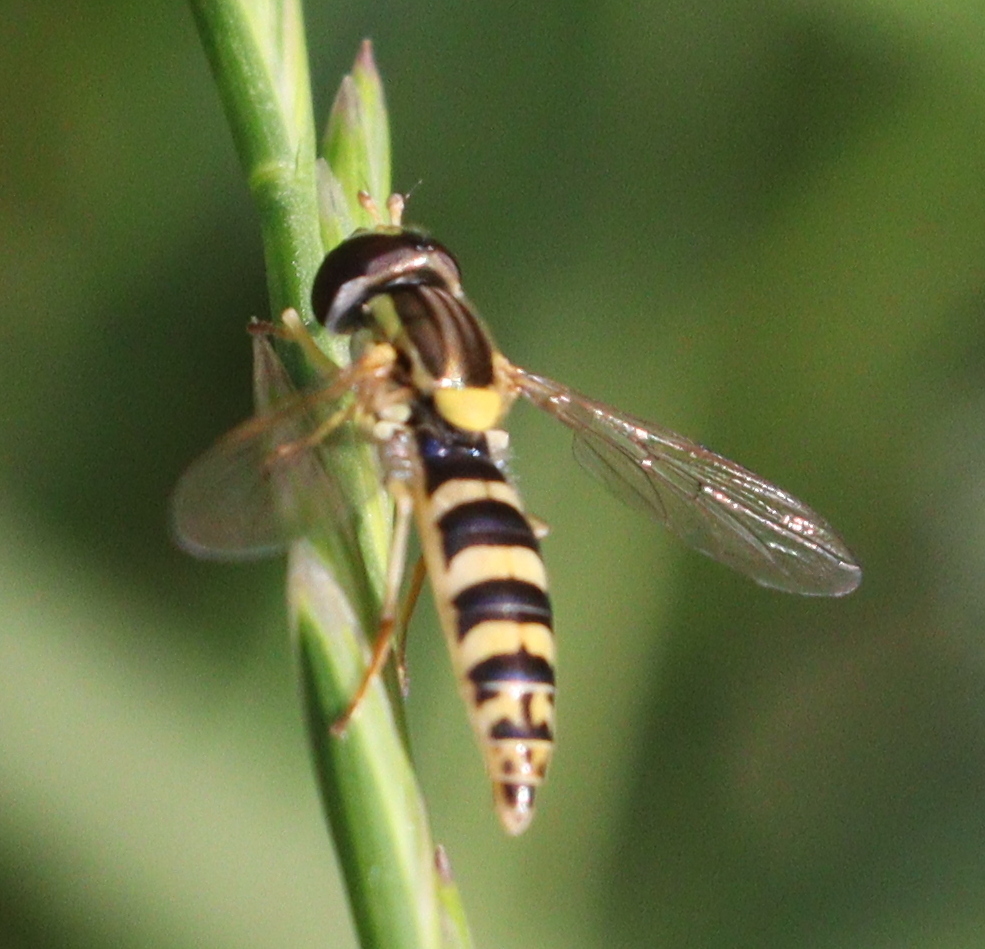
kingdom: Animalia
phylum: Arthropoda
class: Insecta
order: Diptera
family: Syrphidae
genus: Sphaerophoria
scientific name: Sphaerophoria scripta
